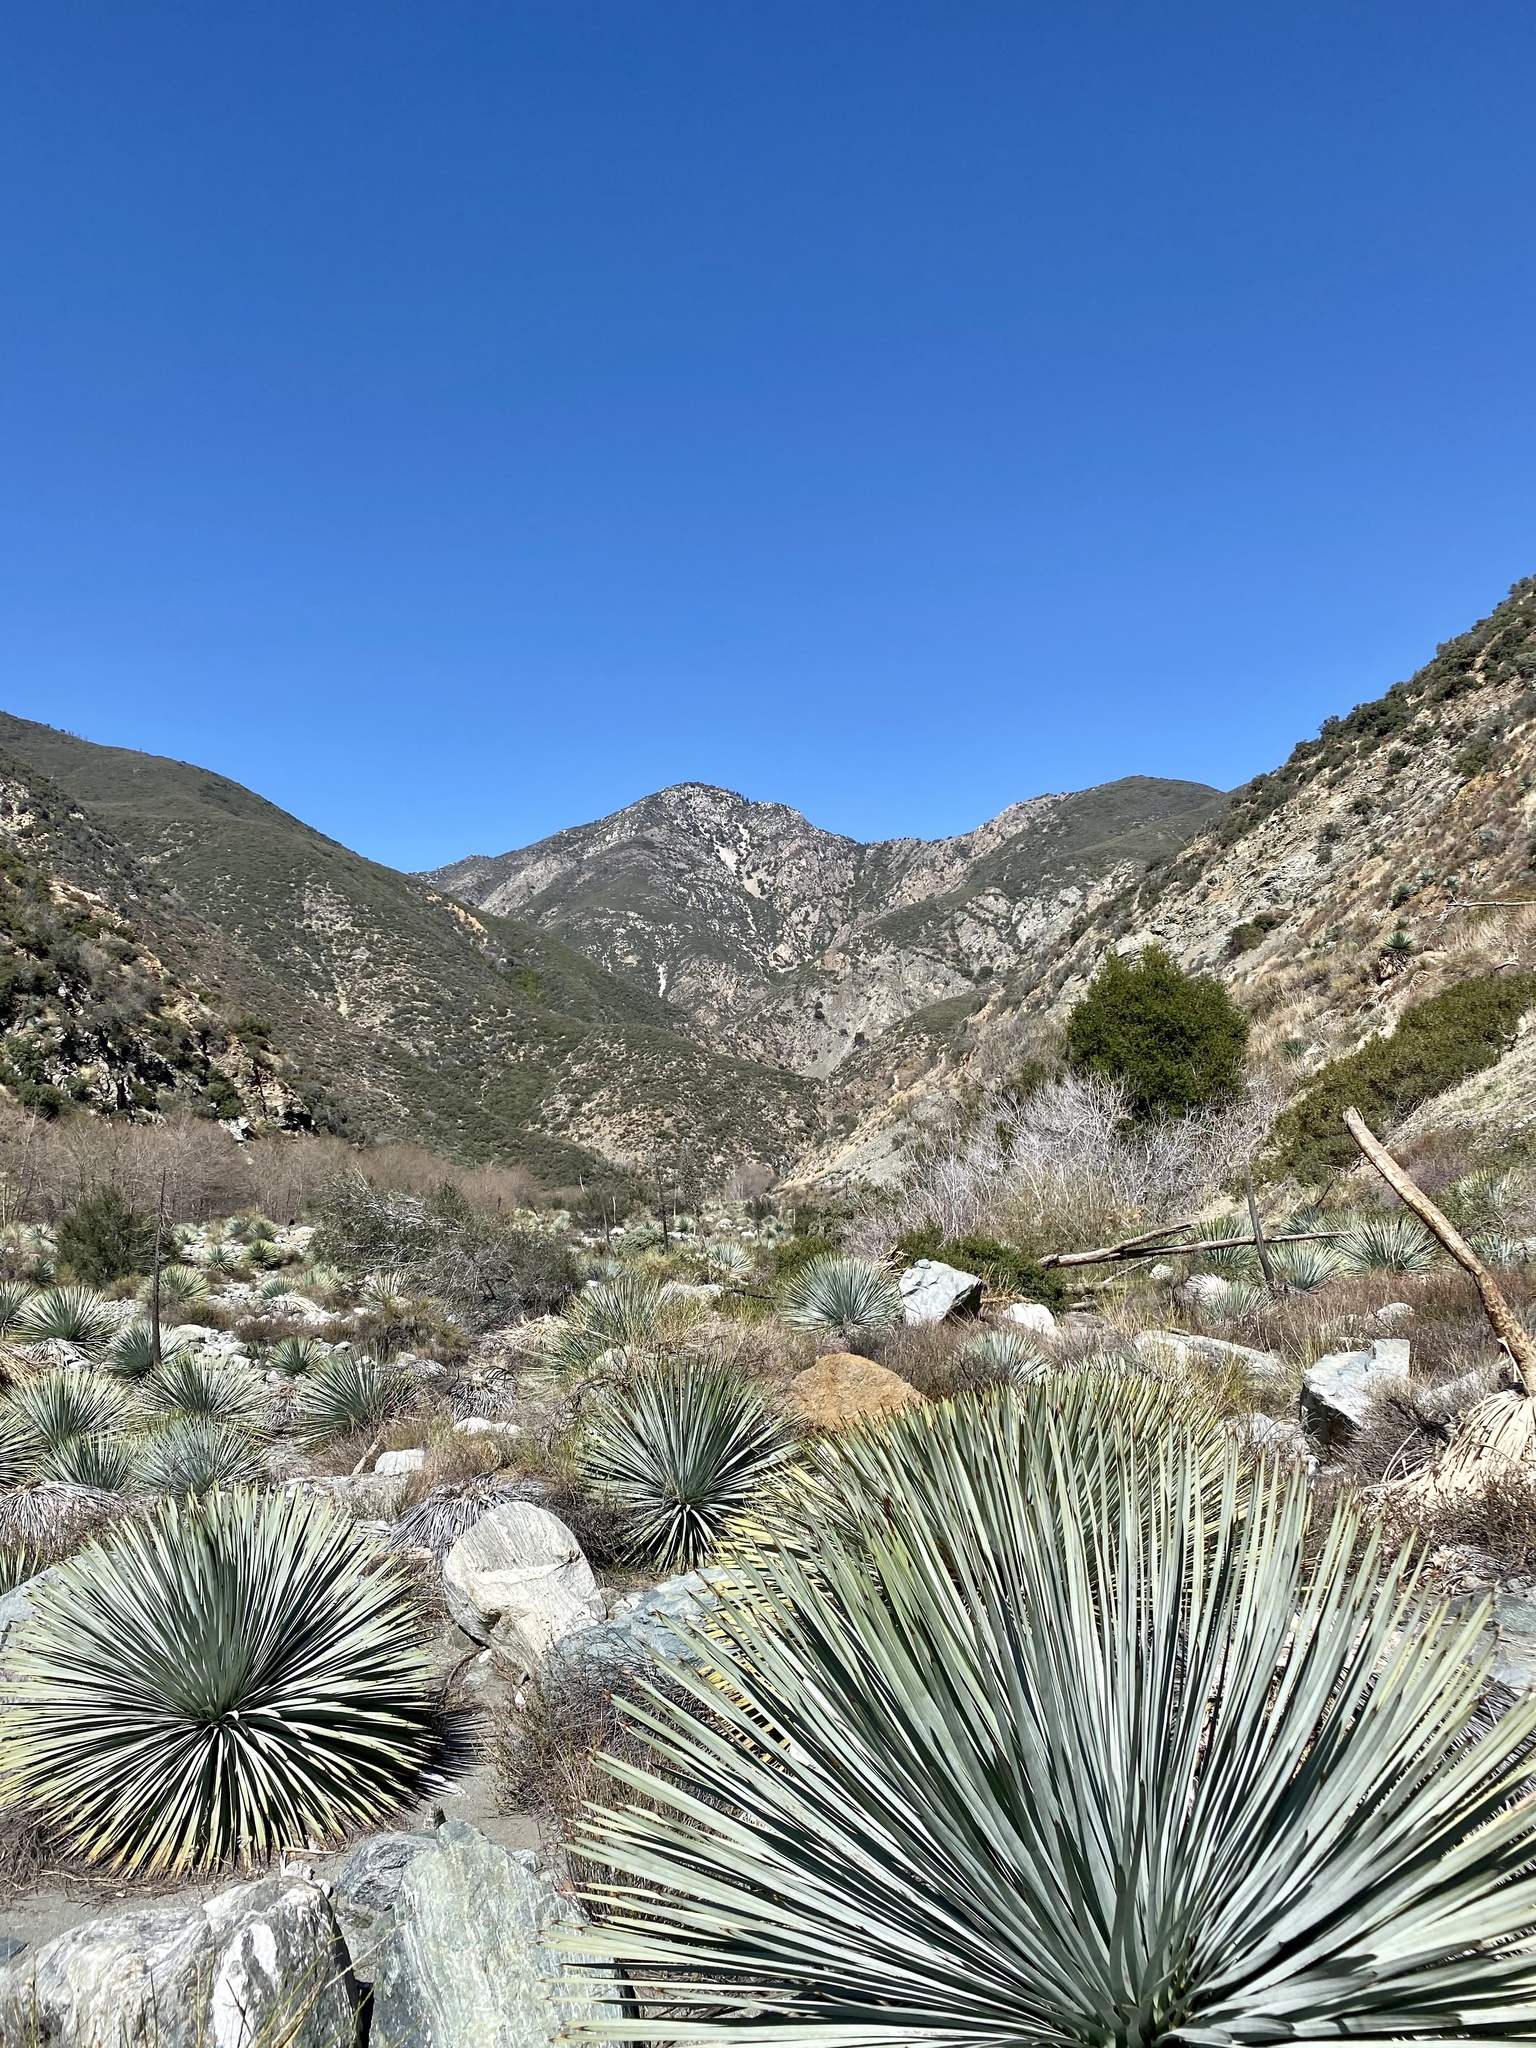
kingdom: Plantae
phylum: Tracheophyta
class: Liliopsida
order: Asparagales
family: Asparagaceae
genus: Hesperoyucca
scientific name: Hesperoyucca whipplei
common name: Our lord's-candle
